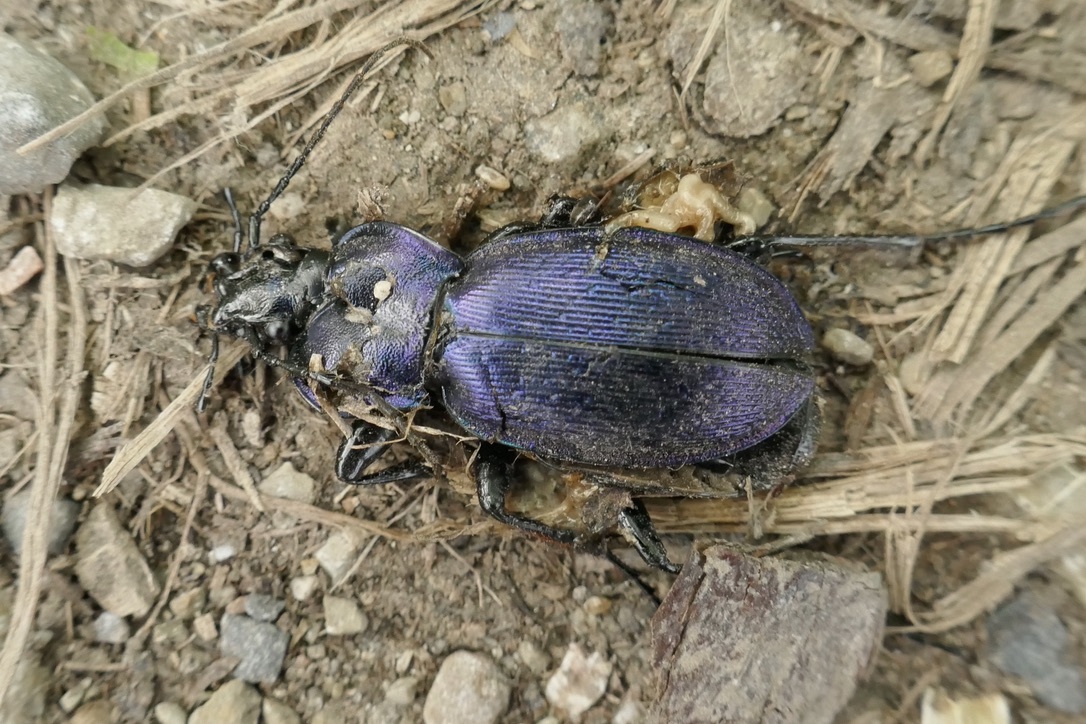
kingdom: Animalia
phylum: Arthropoda
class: Insecta
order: Coleoptera
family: Carabidae
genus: Carabus
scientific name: Carabus scheidleri
